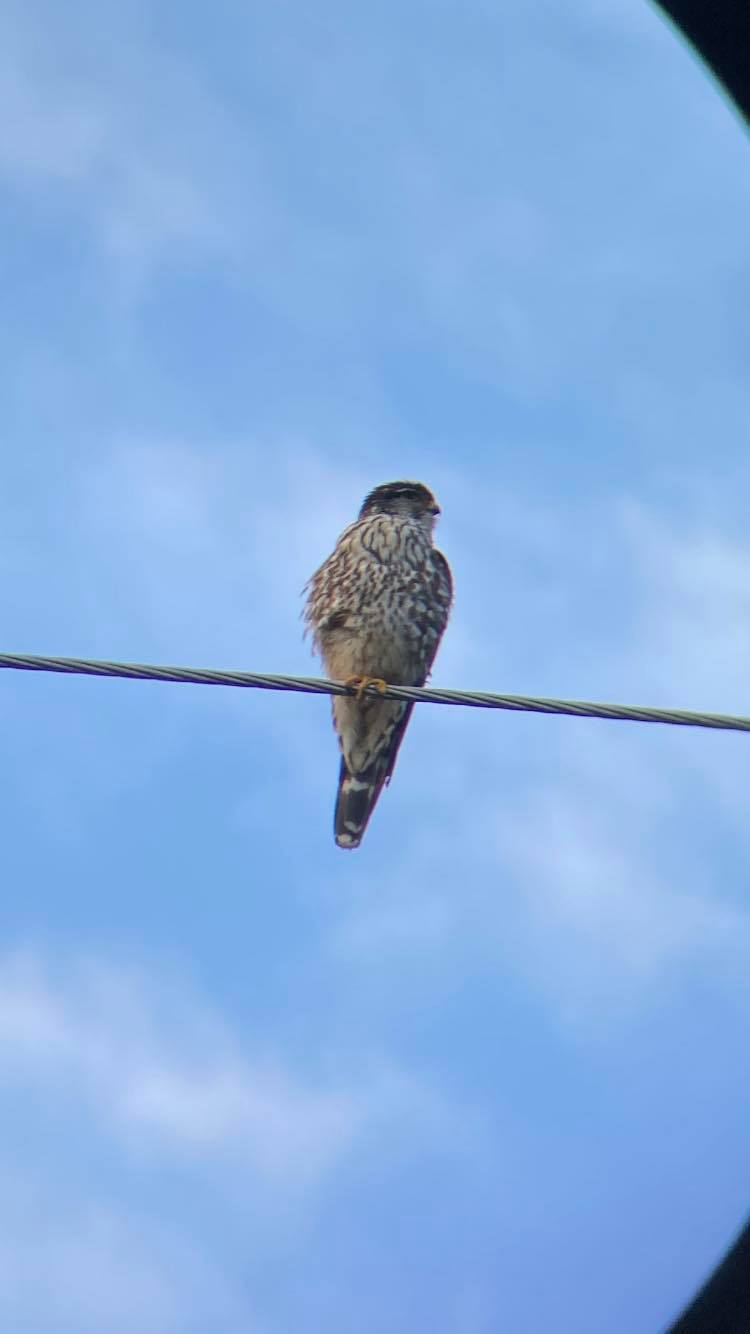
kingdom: Animalia
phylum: Chordata
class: Aves
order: Falconiformes
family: Falconidae
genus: Falco
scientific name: Falco columbarius
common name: Merlin
